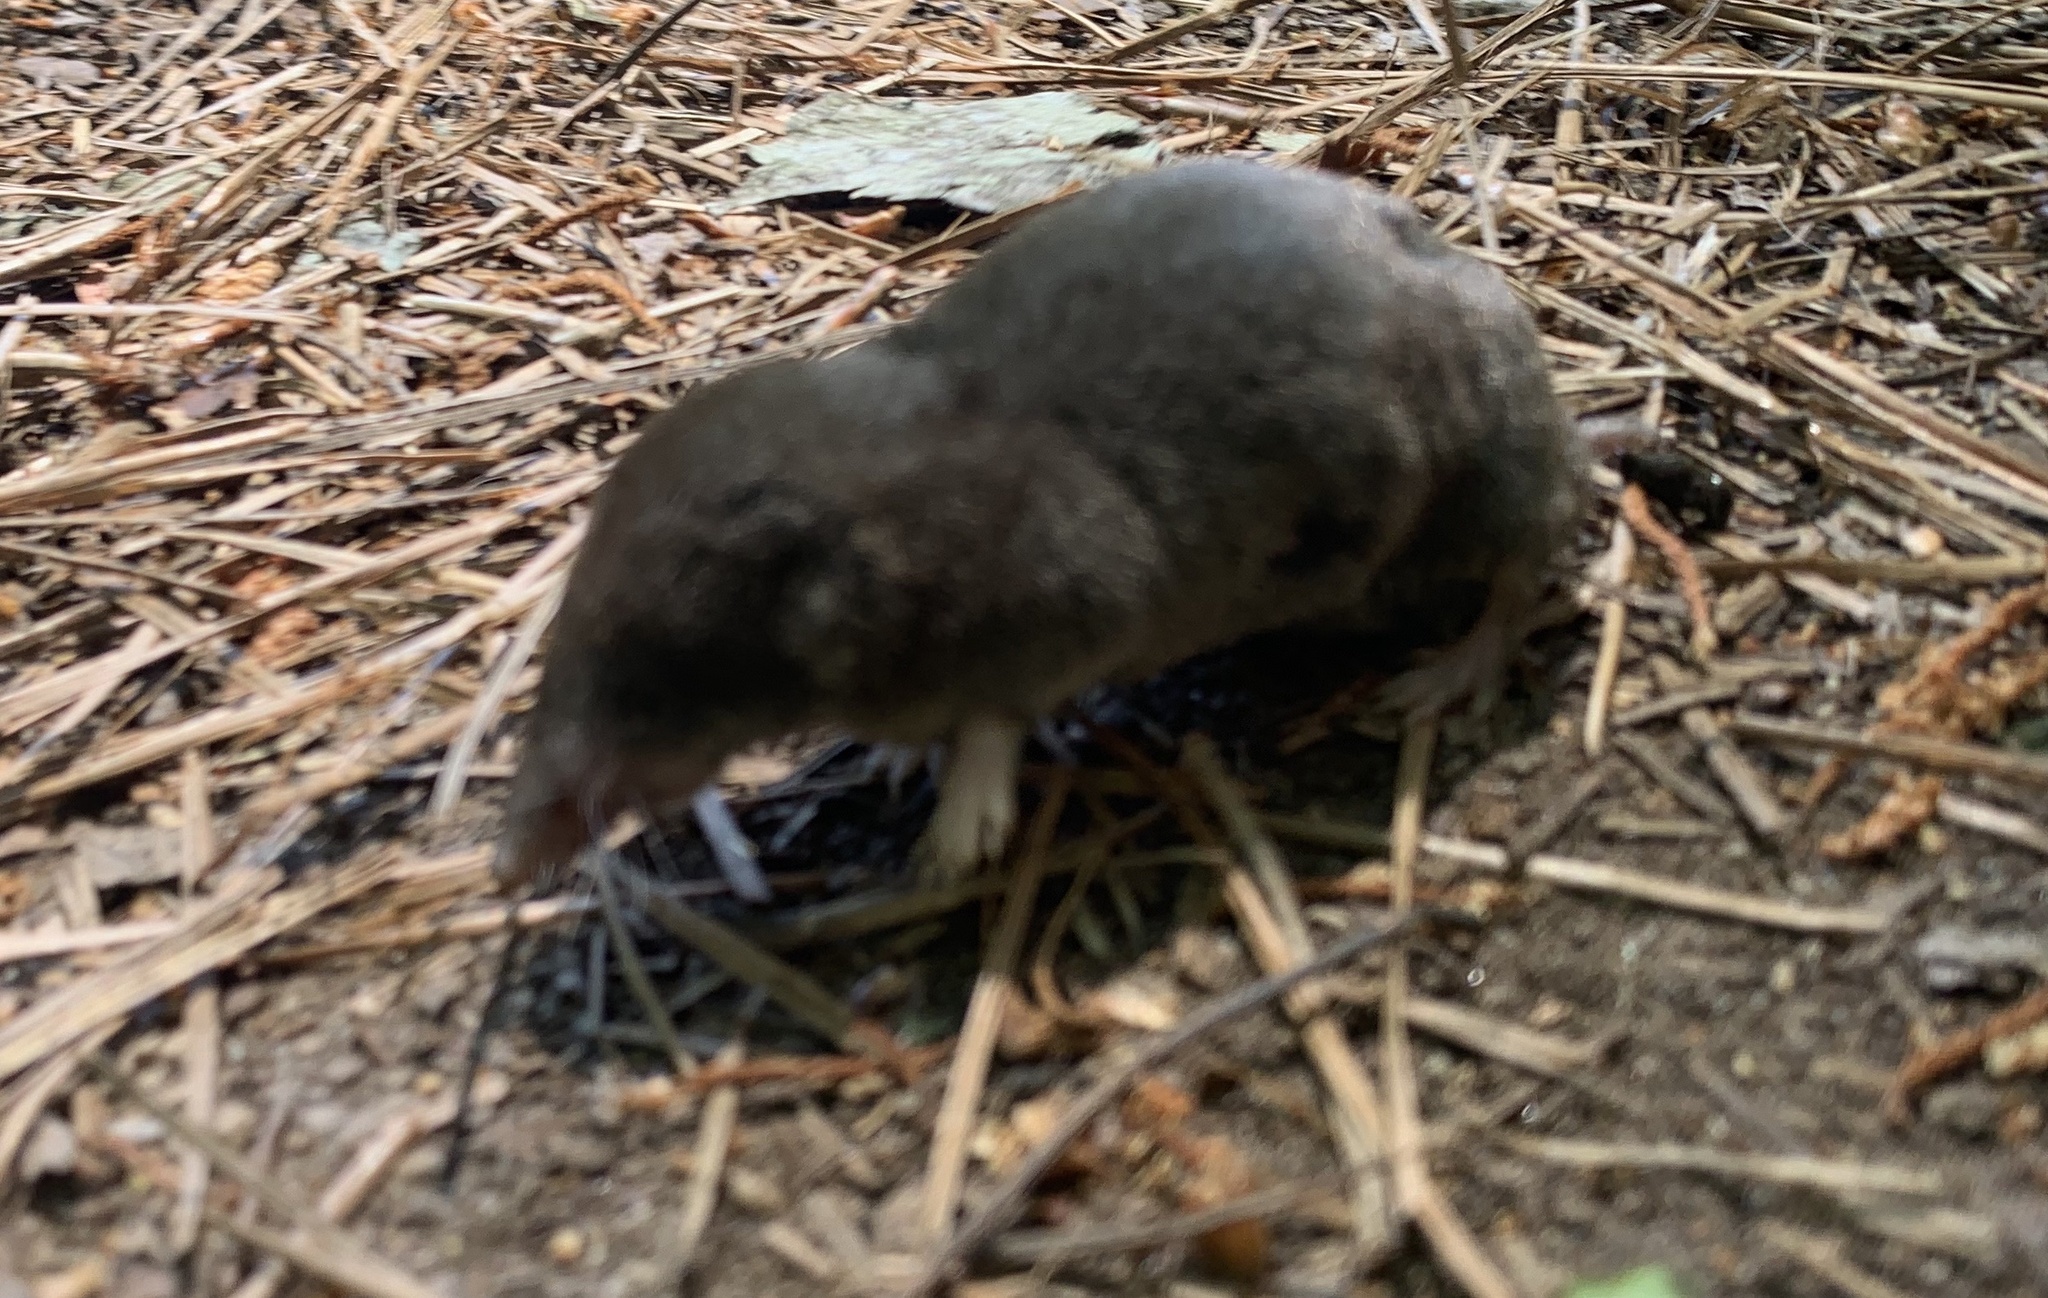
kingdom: Animalia
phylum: Chordata
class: Mammalia
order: Soricomorpha
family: Soricidae
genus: Blarina
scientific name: Blarina carolinensis
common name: Southern short-tailed shrew
